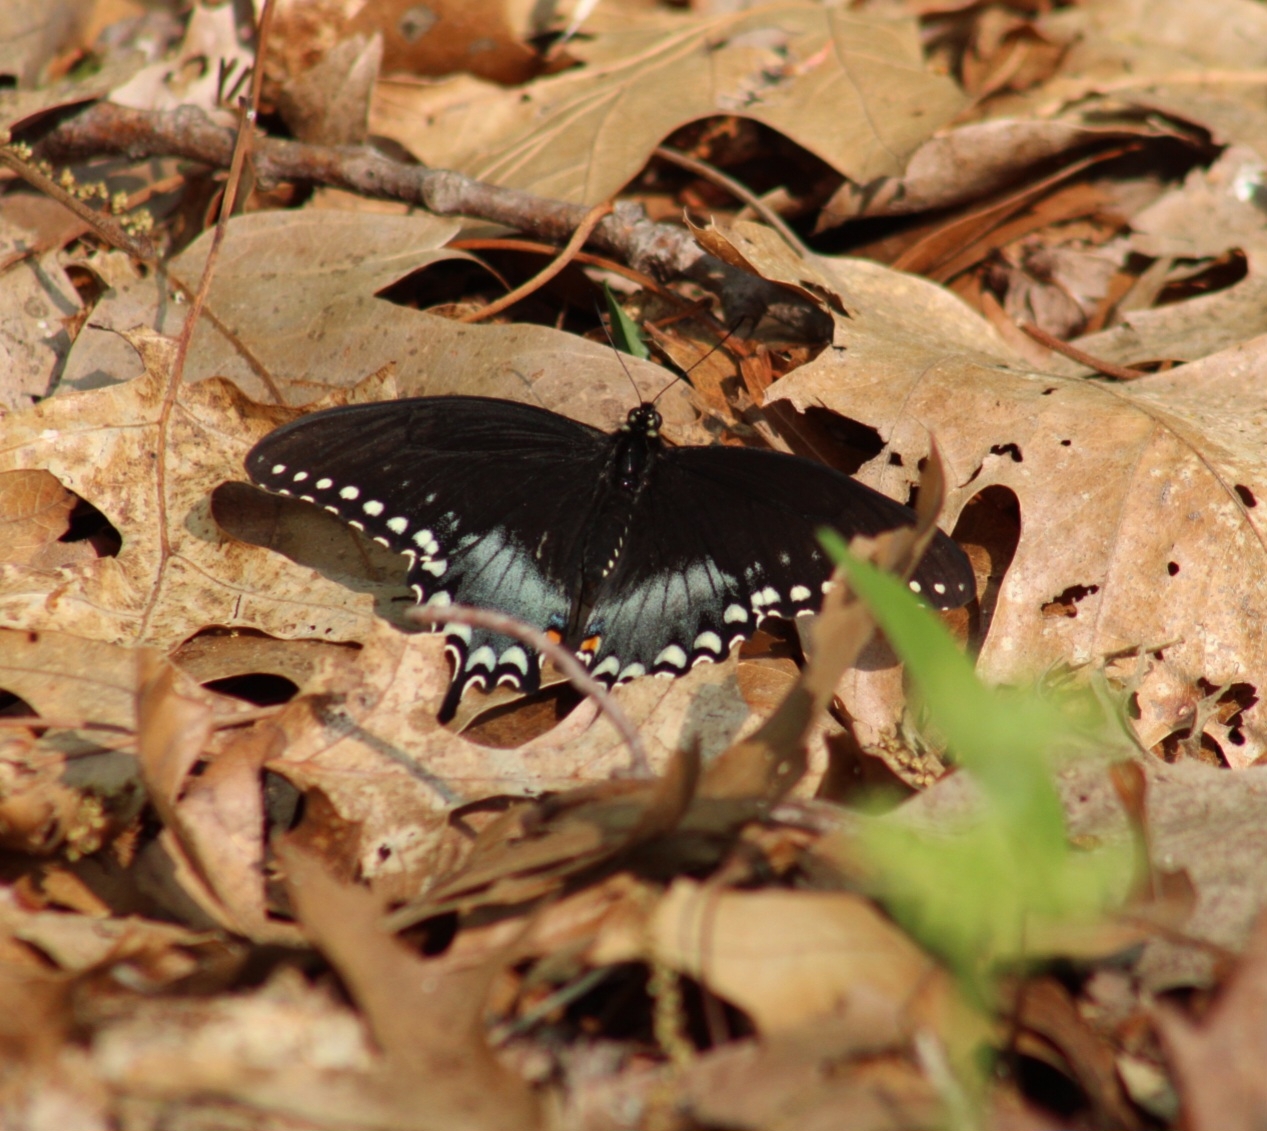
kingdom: Animalia
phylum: Arthropoda
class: Insecta
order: Lepidoptera
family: Papilionidae
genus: Papilio
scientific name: Papilio troilus
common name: Spicebush swallowtail
